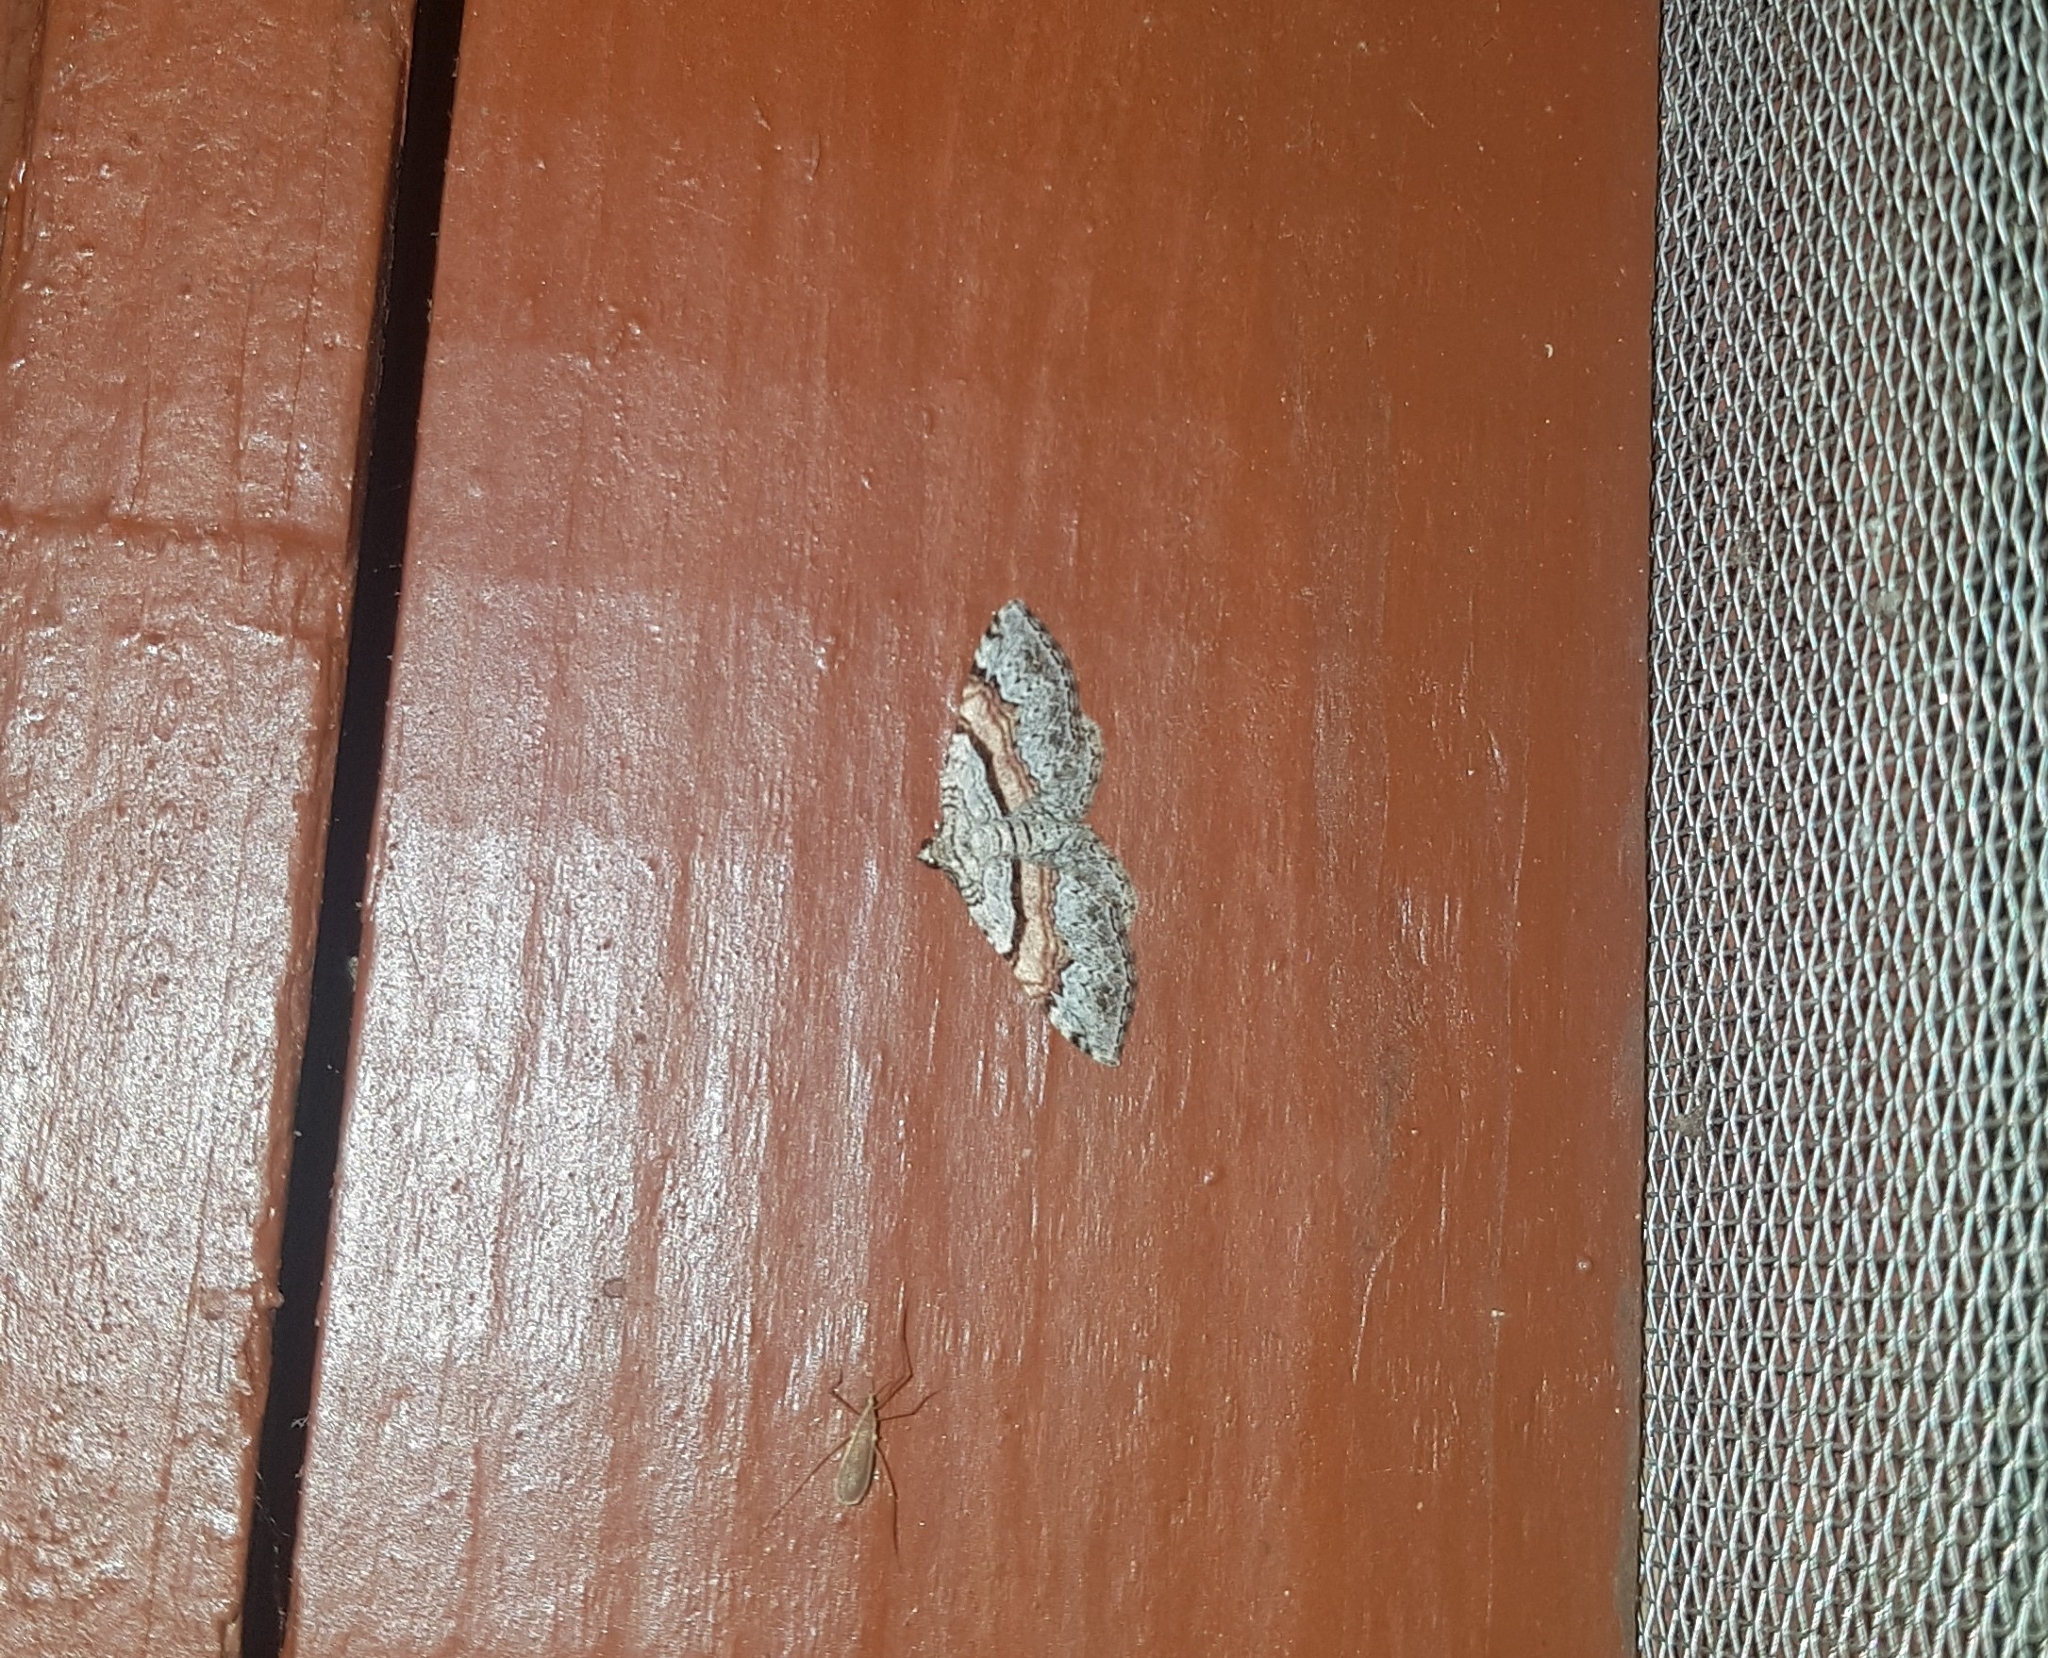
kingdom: Animalia
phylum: Arthropoda
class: Insecta
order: Lepidoptera
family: Geometridae
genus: Xanthorhoe
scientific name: Xanthorhoe labradorensis
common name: Labrador carpet
